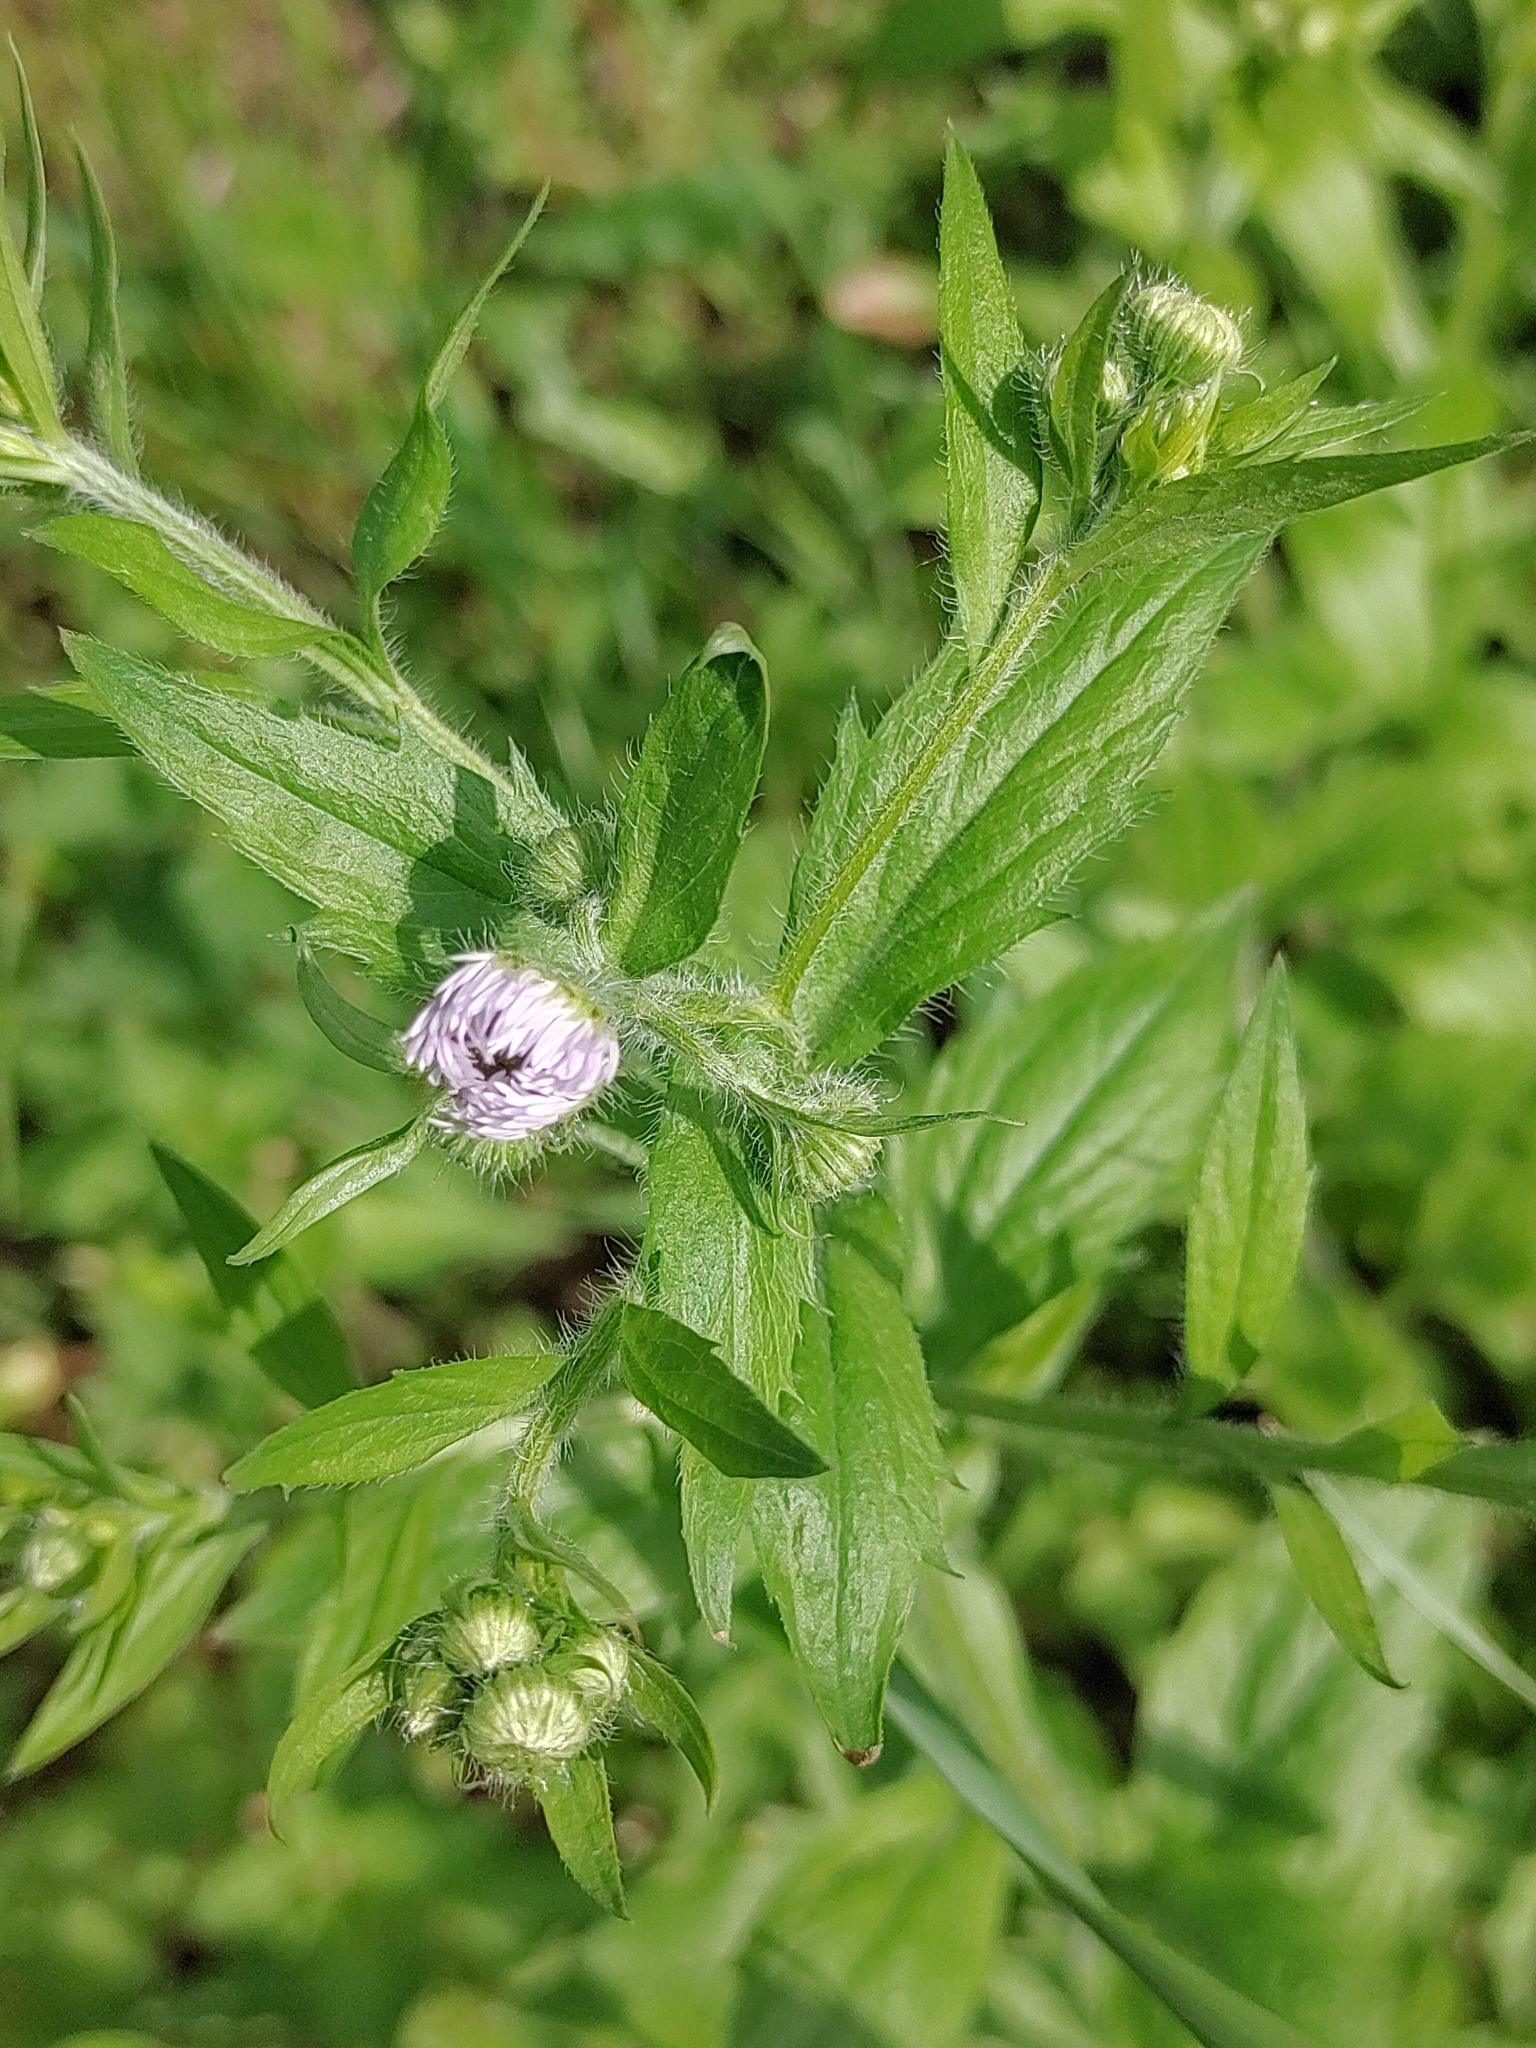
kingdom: Plantae
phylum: Tracheophyta
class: Magnoliopsida
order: Asterales
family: Asteraceae
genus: Erigeron
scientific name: Erigeron annuus
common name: Tall fleabane
